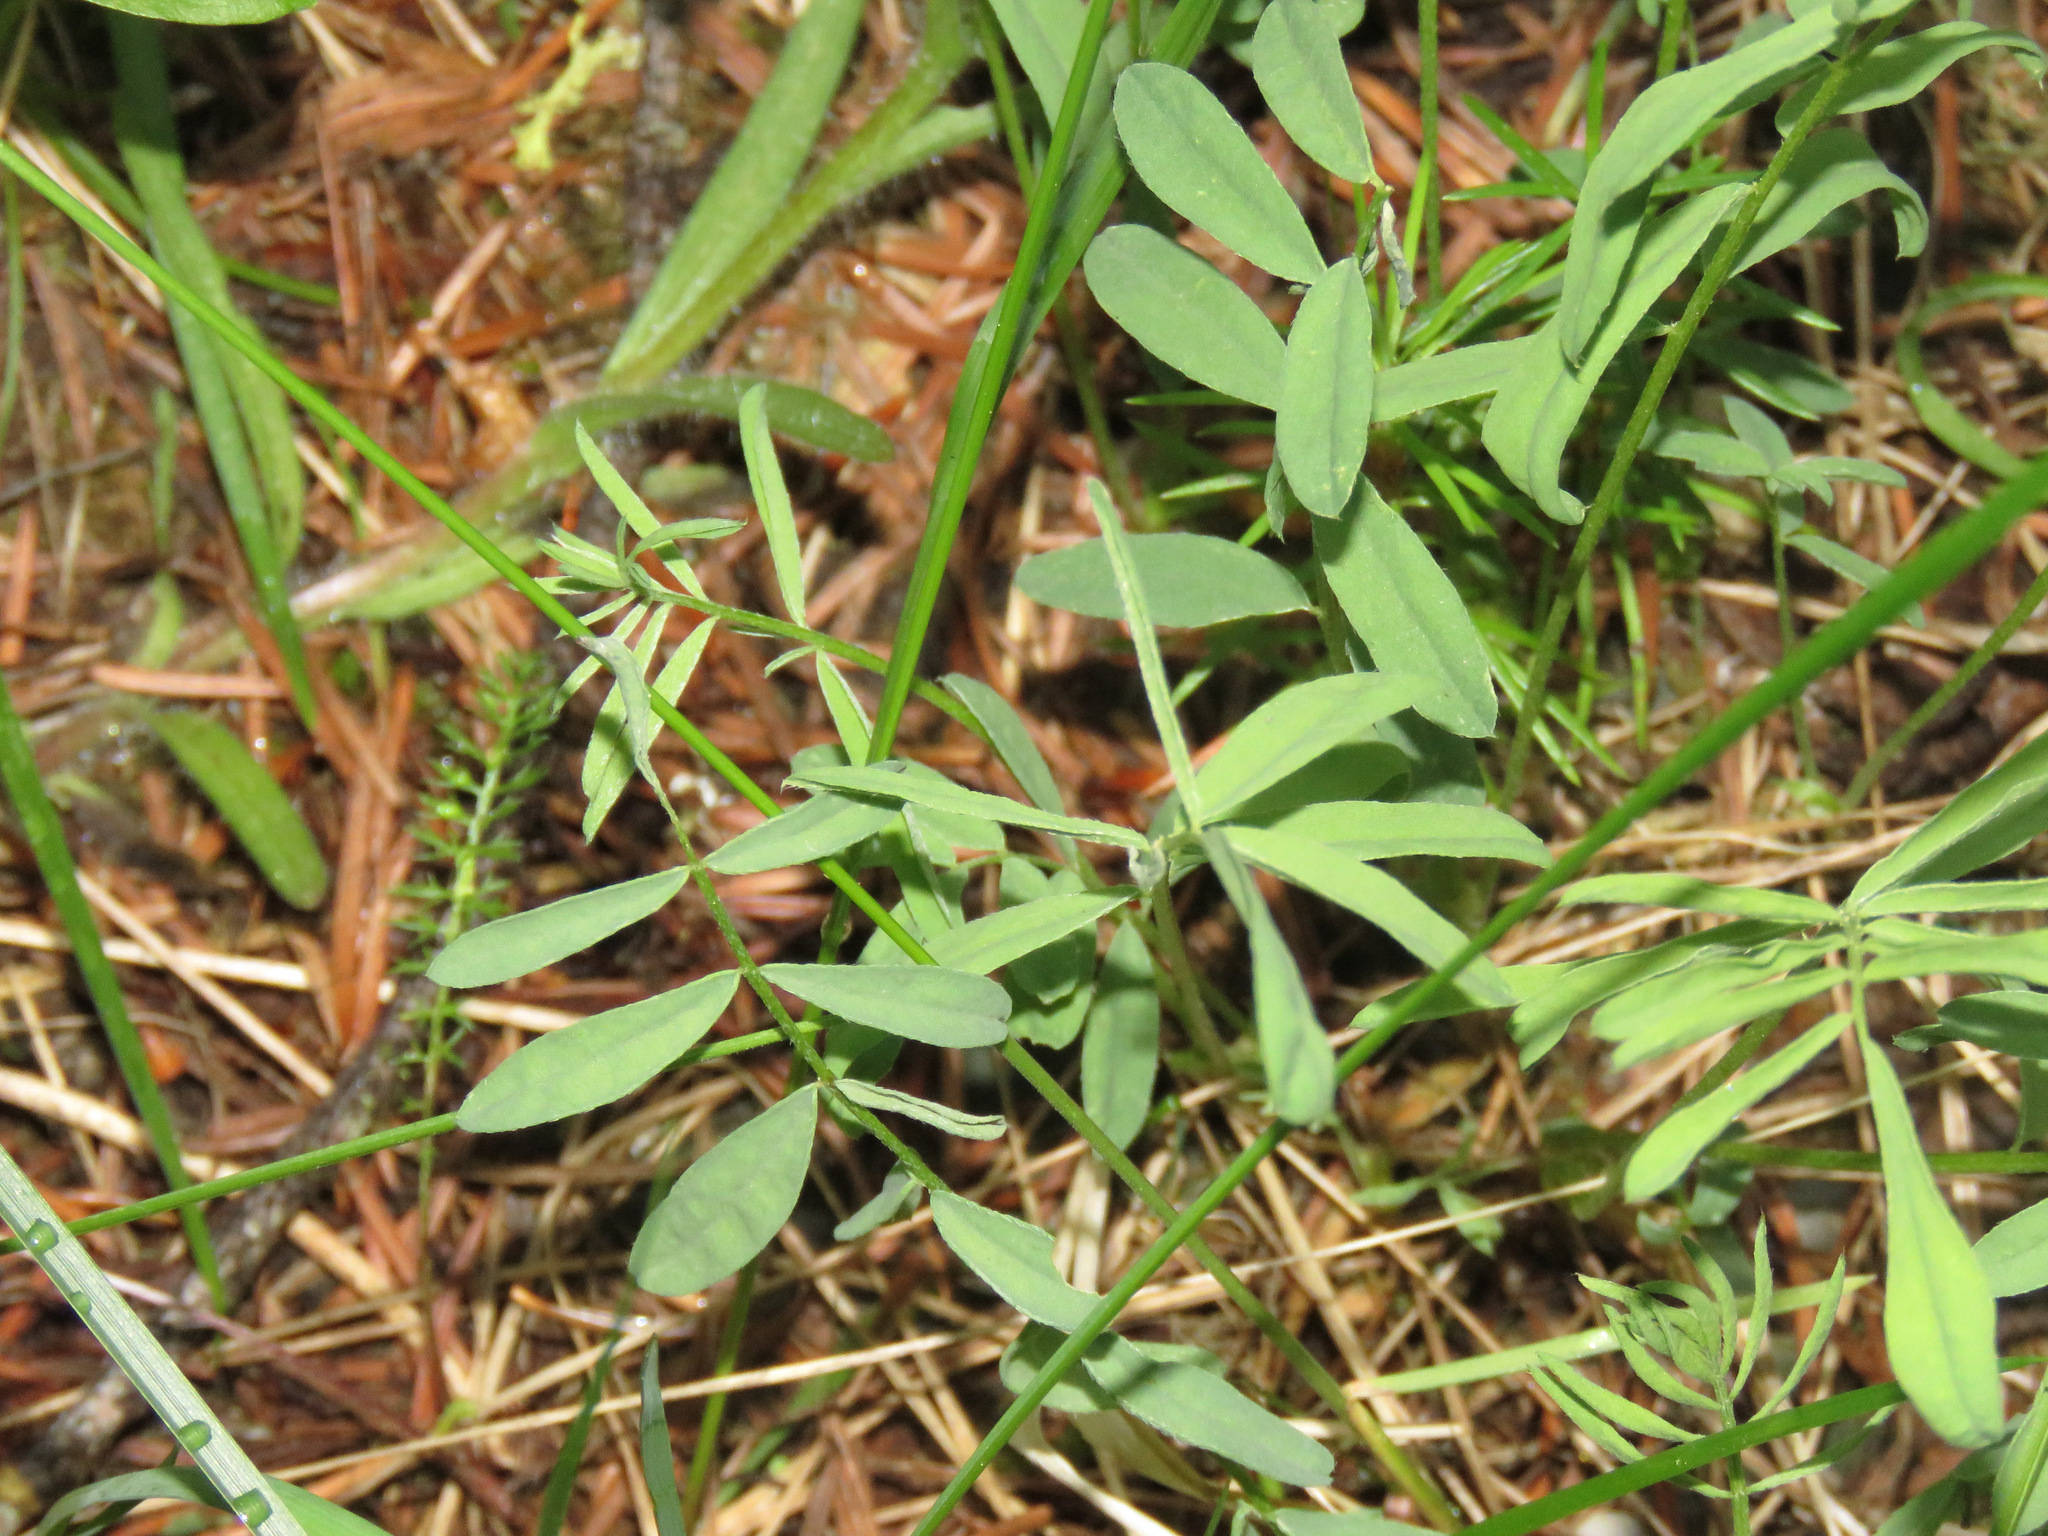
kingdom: Plantae
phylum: Tracheophyta
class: Magnoliopsida
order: Fabales
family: Fabaceae
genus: Astragalus
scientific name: Astragalus miser
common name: Timber milkvetch
